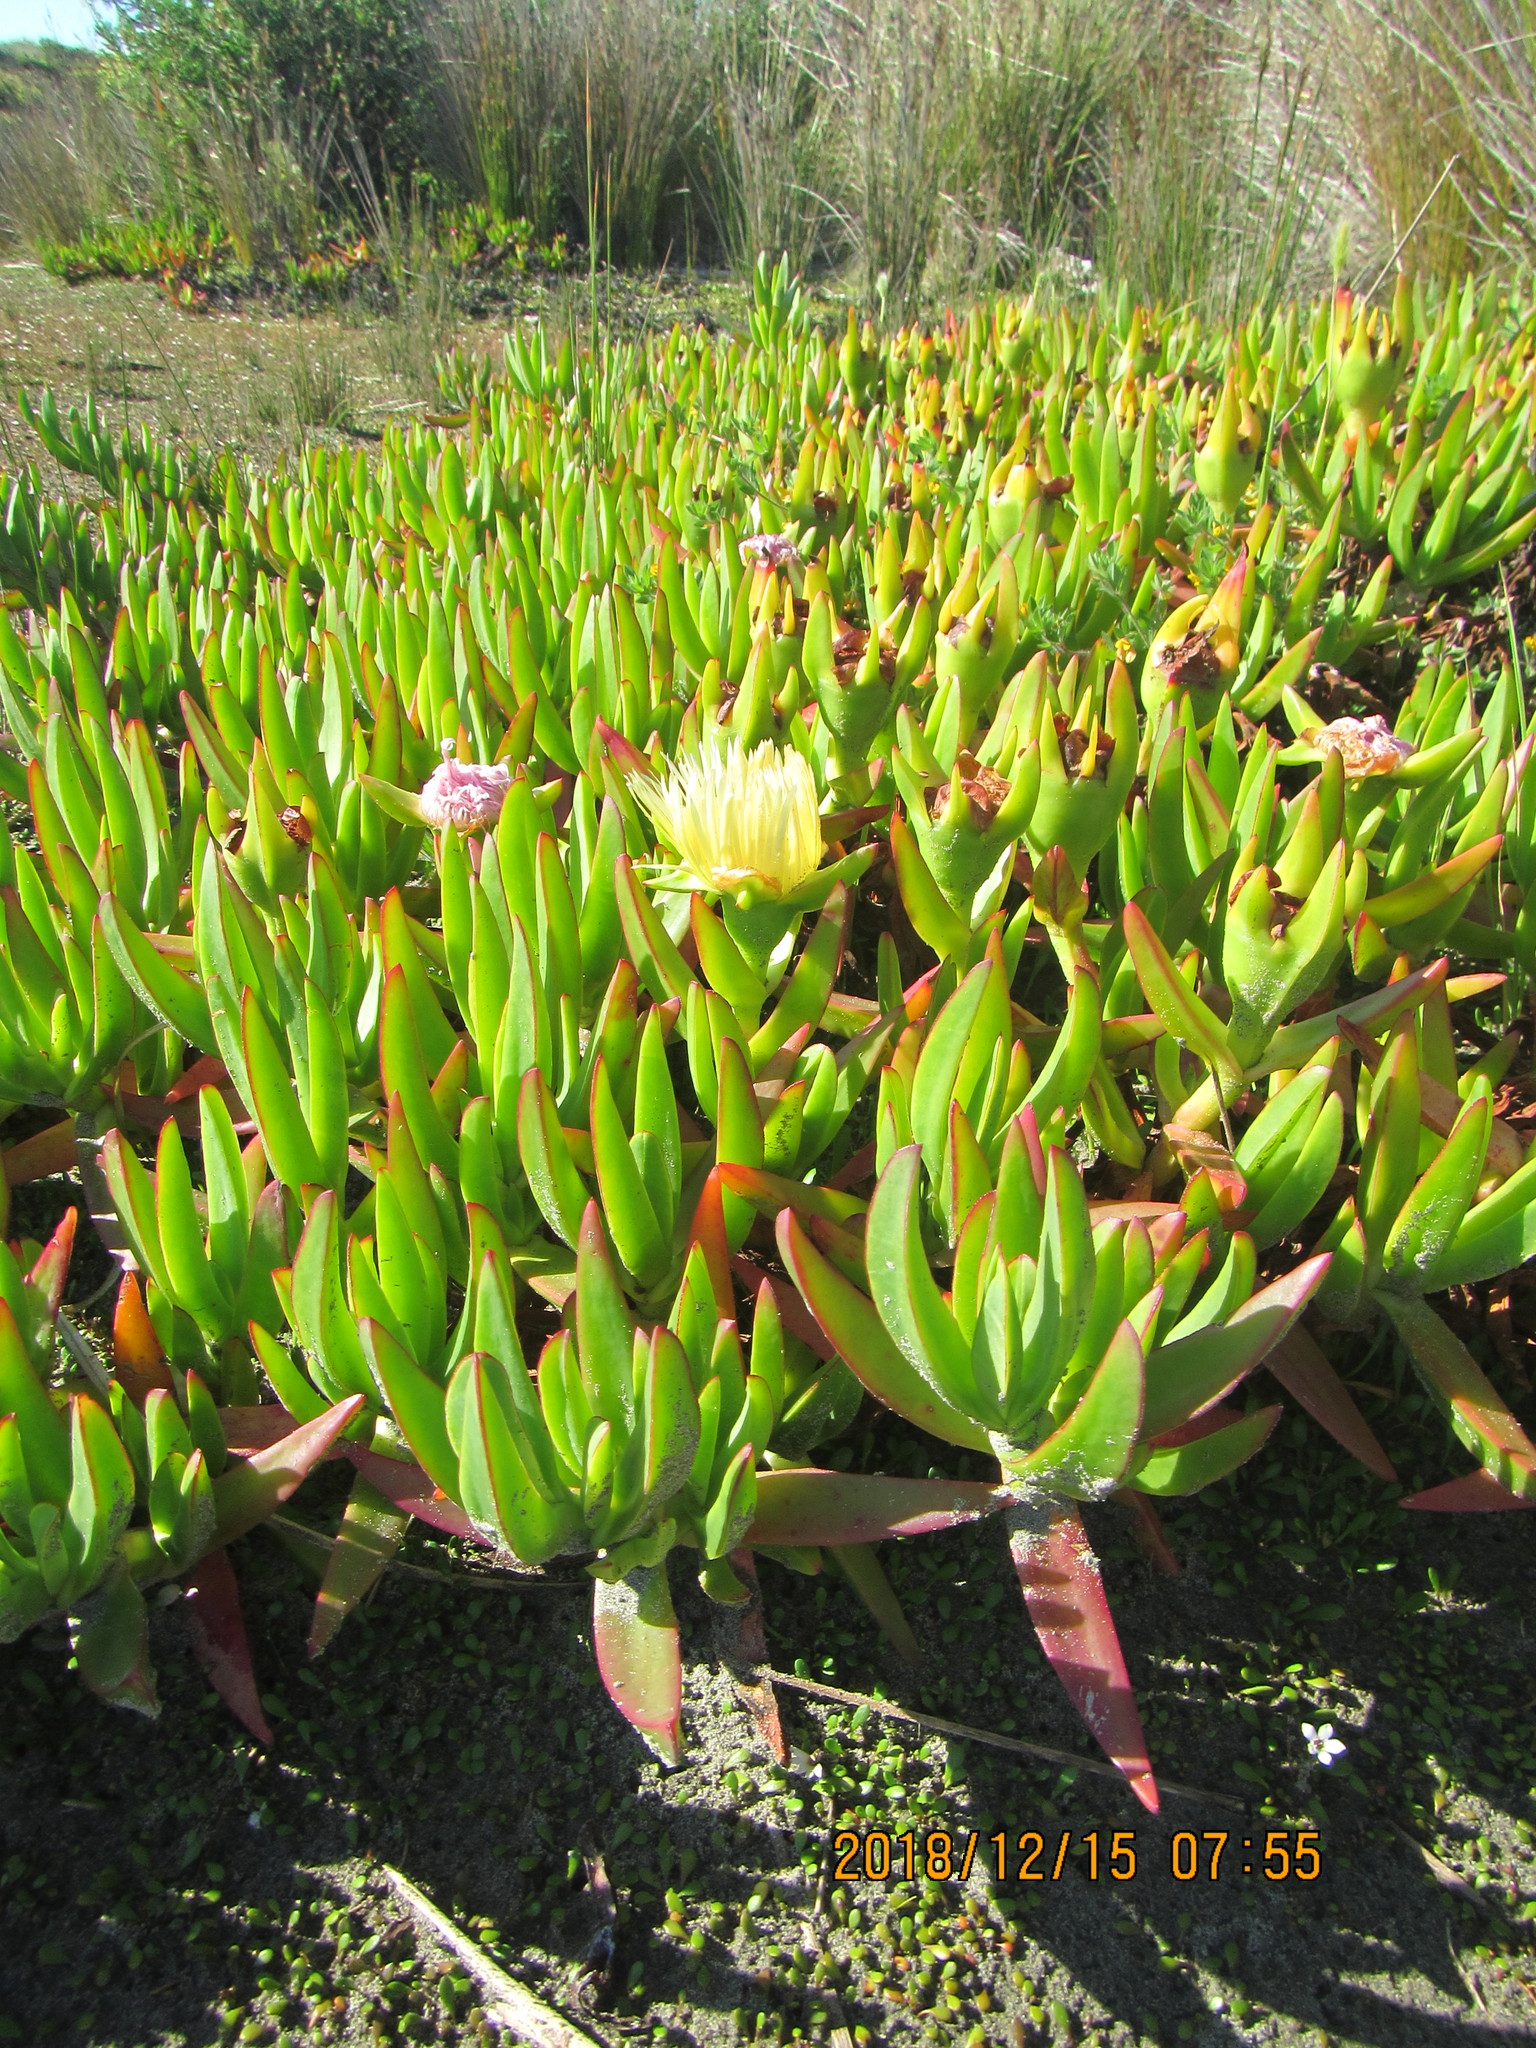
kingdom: Plantae
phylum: Tracheophyta
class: Magnoliopsida
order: Caryophyllales
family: Aizoaceae
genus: Carpobrotus
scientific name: Carpobrotus edulis
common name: Hottentot-fig
